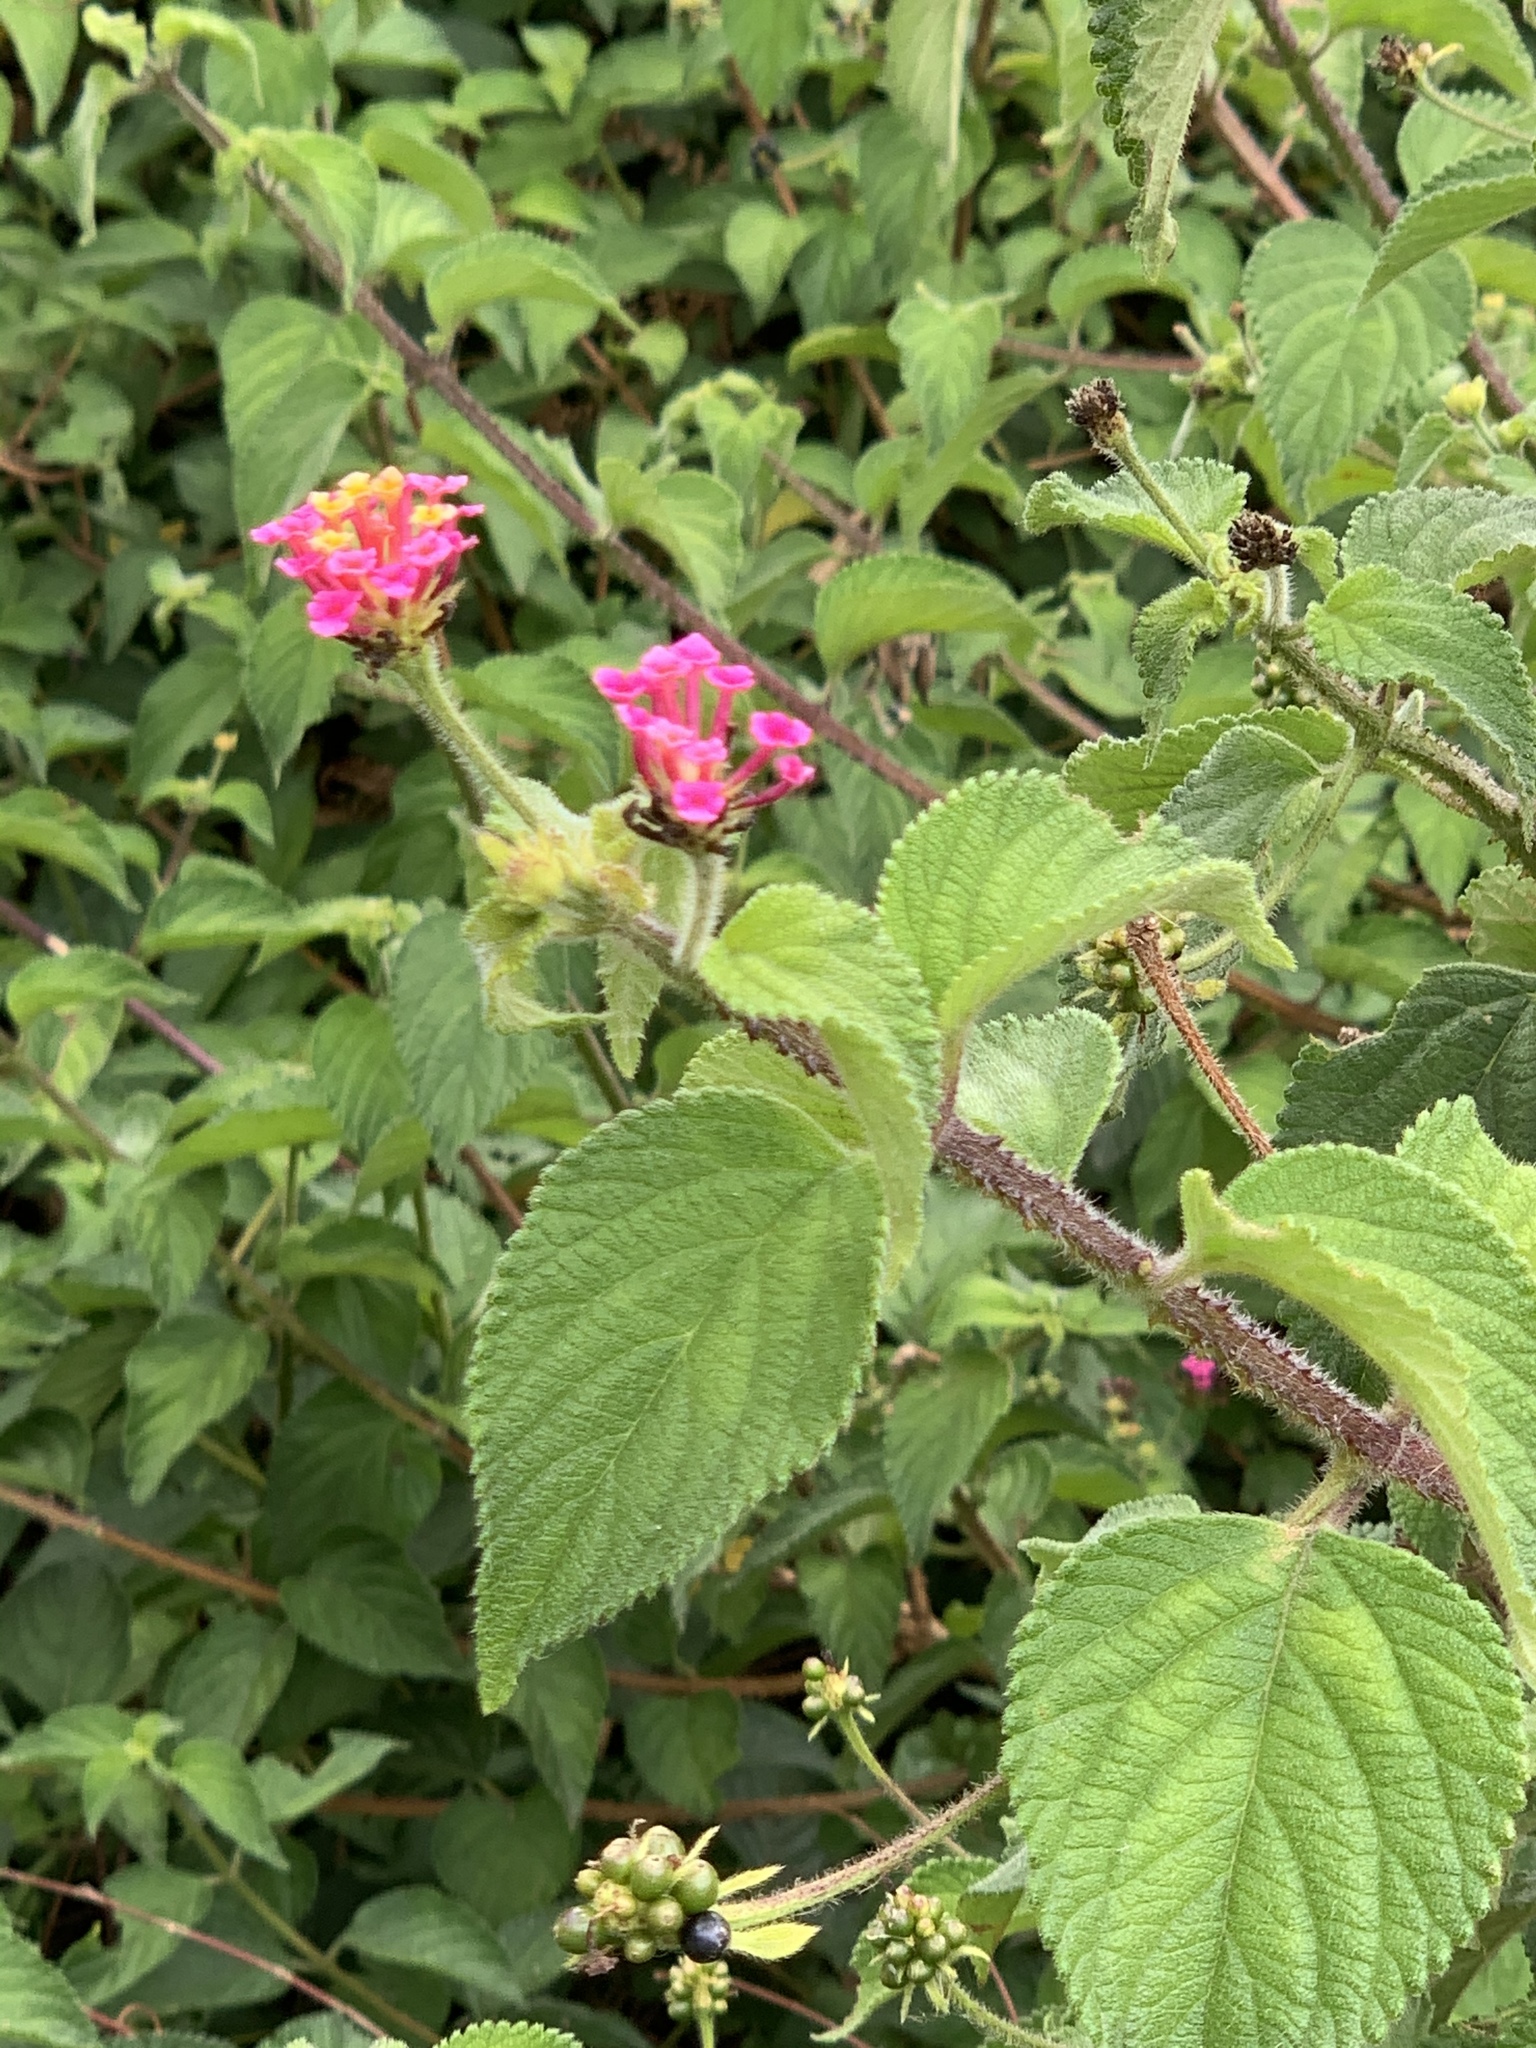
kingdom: Plantae
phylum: Tracheophyta
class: Magnoliopsida
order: Lamiales
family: Verbenaceae
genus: Lantana
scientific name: Lantana camara
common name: Lantana
